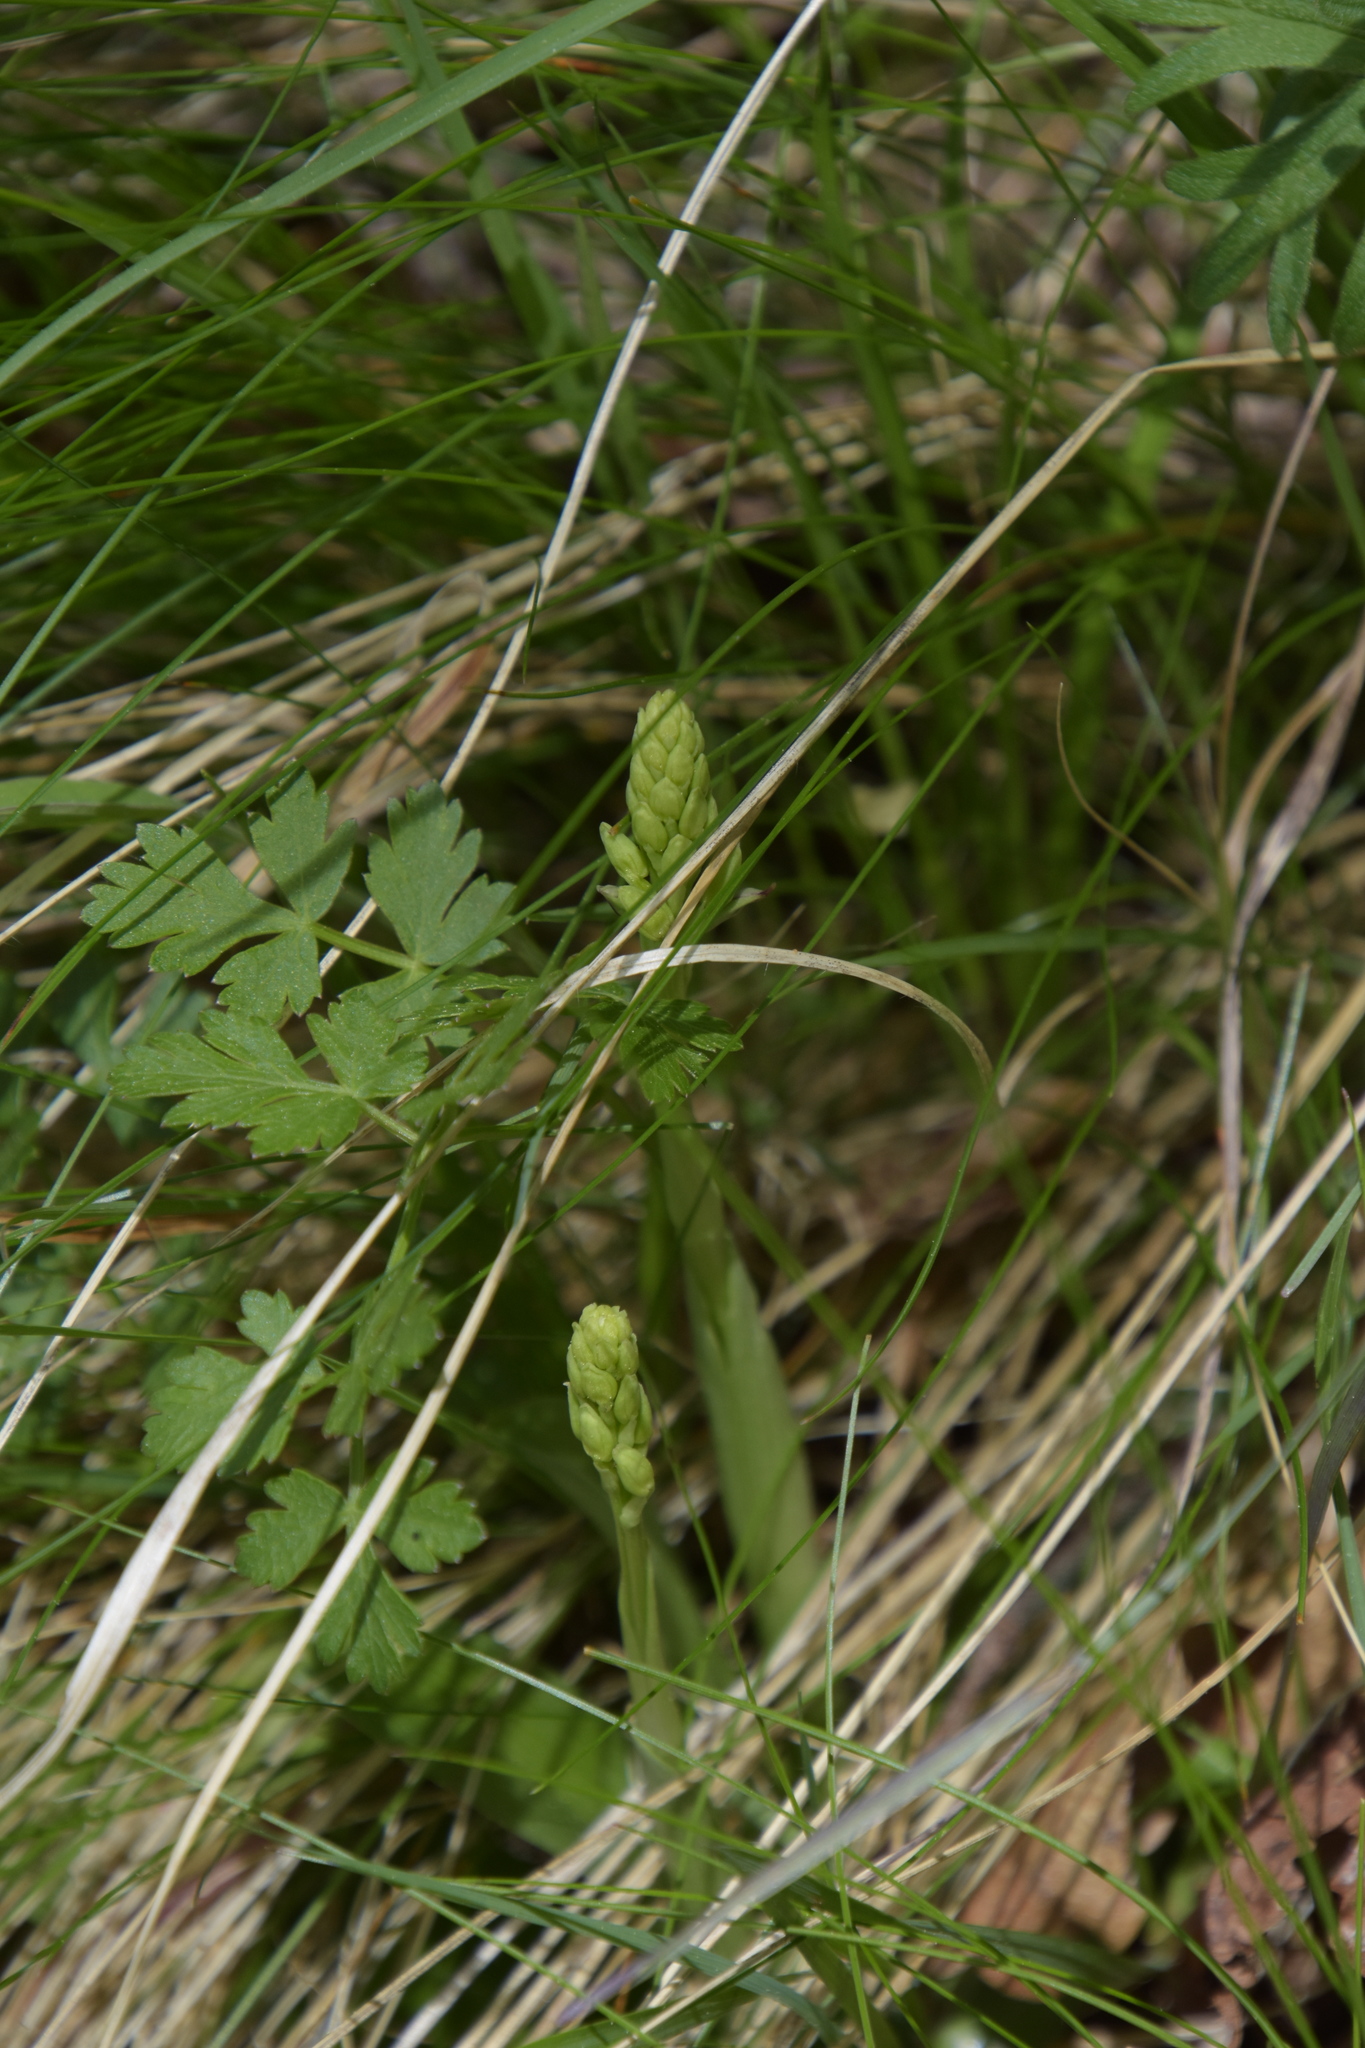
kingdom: Plantae
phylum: Tracheophyta
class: Liliopsida
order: Asparagales
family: Orchidaceae
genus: Orchis
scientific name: Orchis anthropophora
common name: Man orchid
